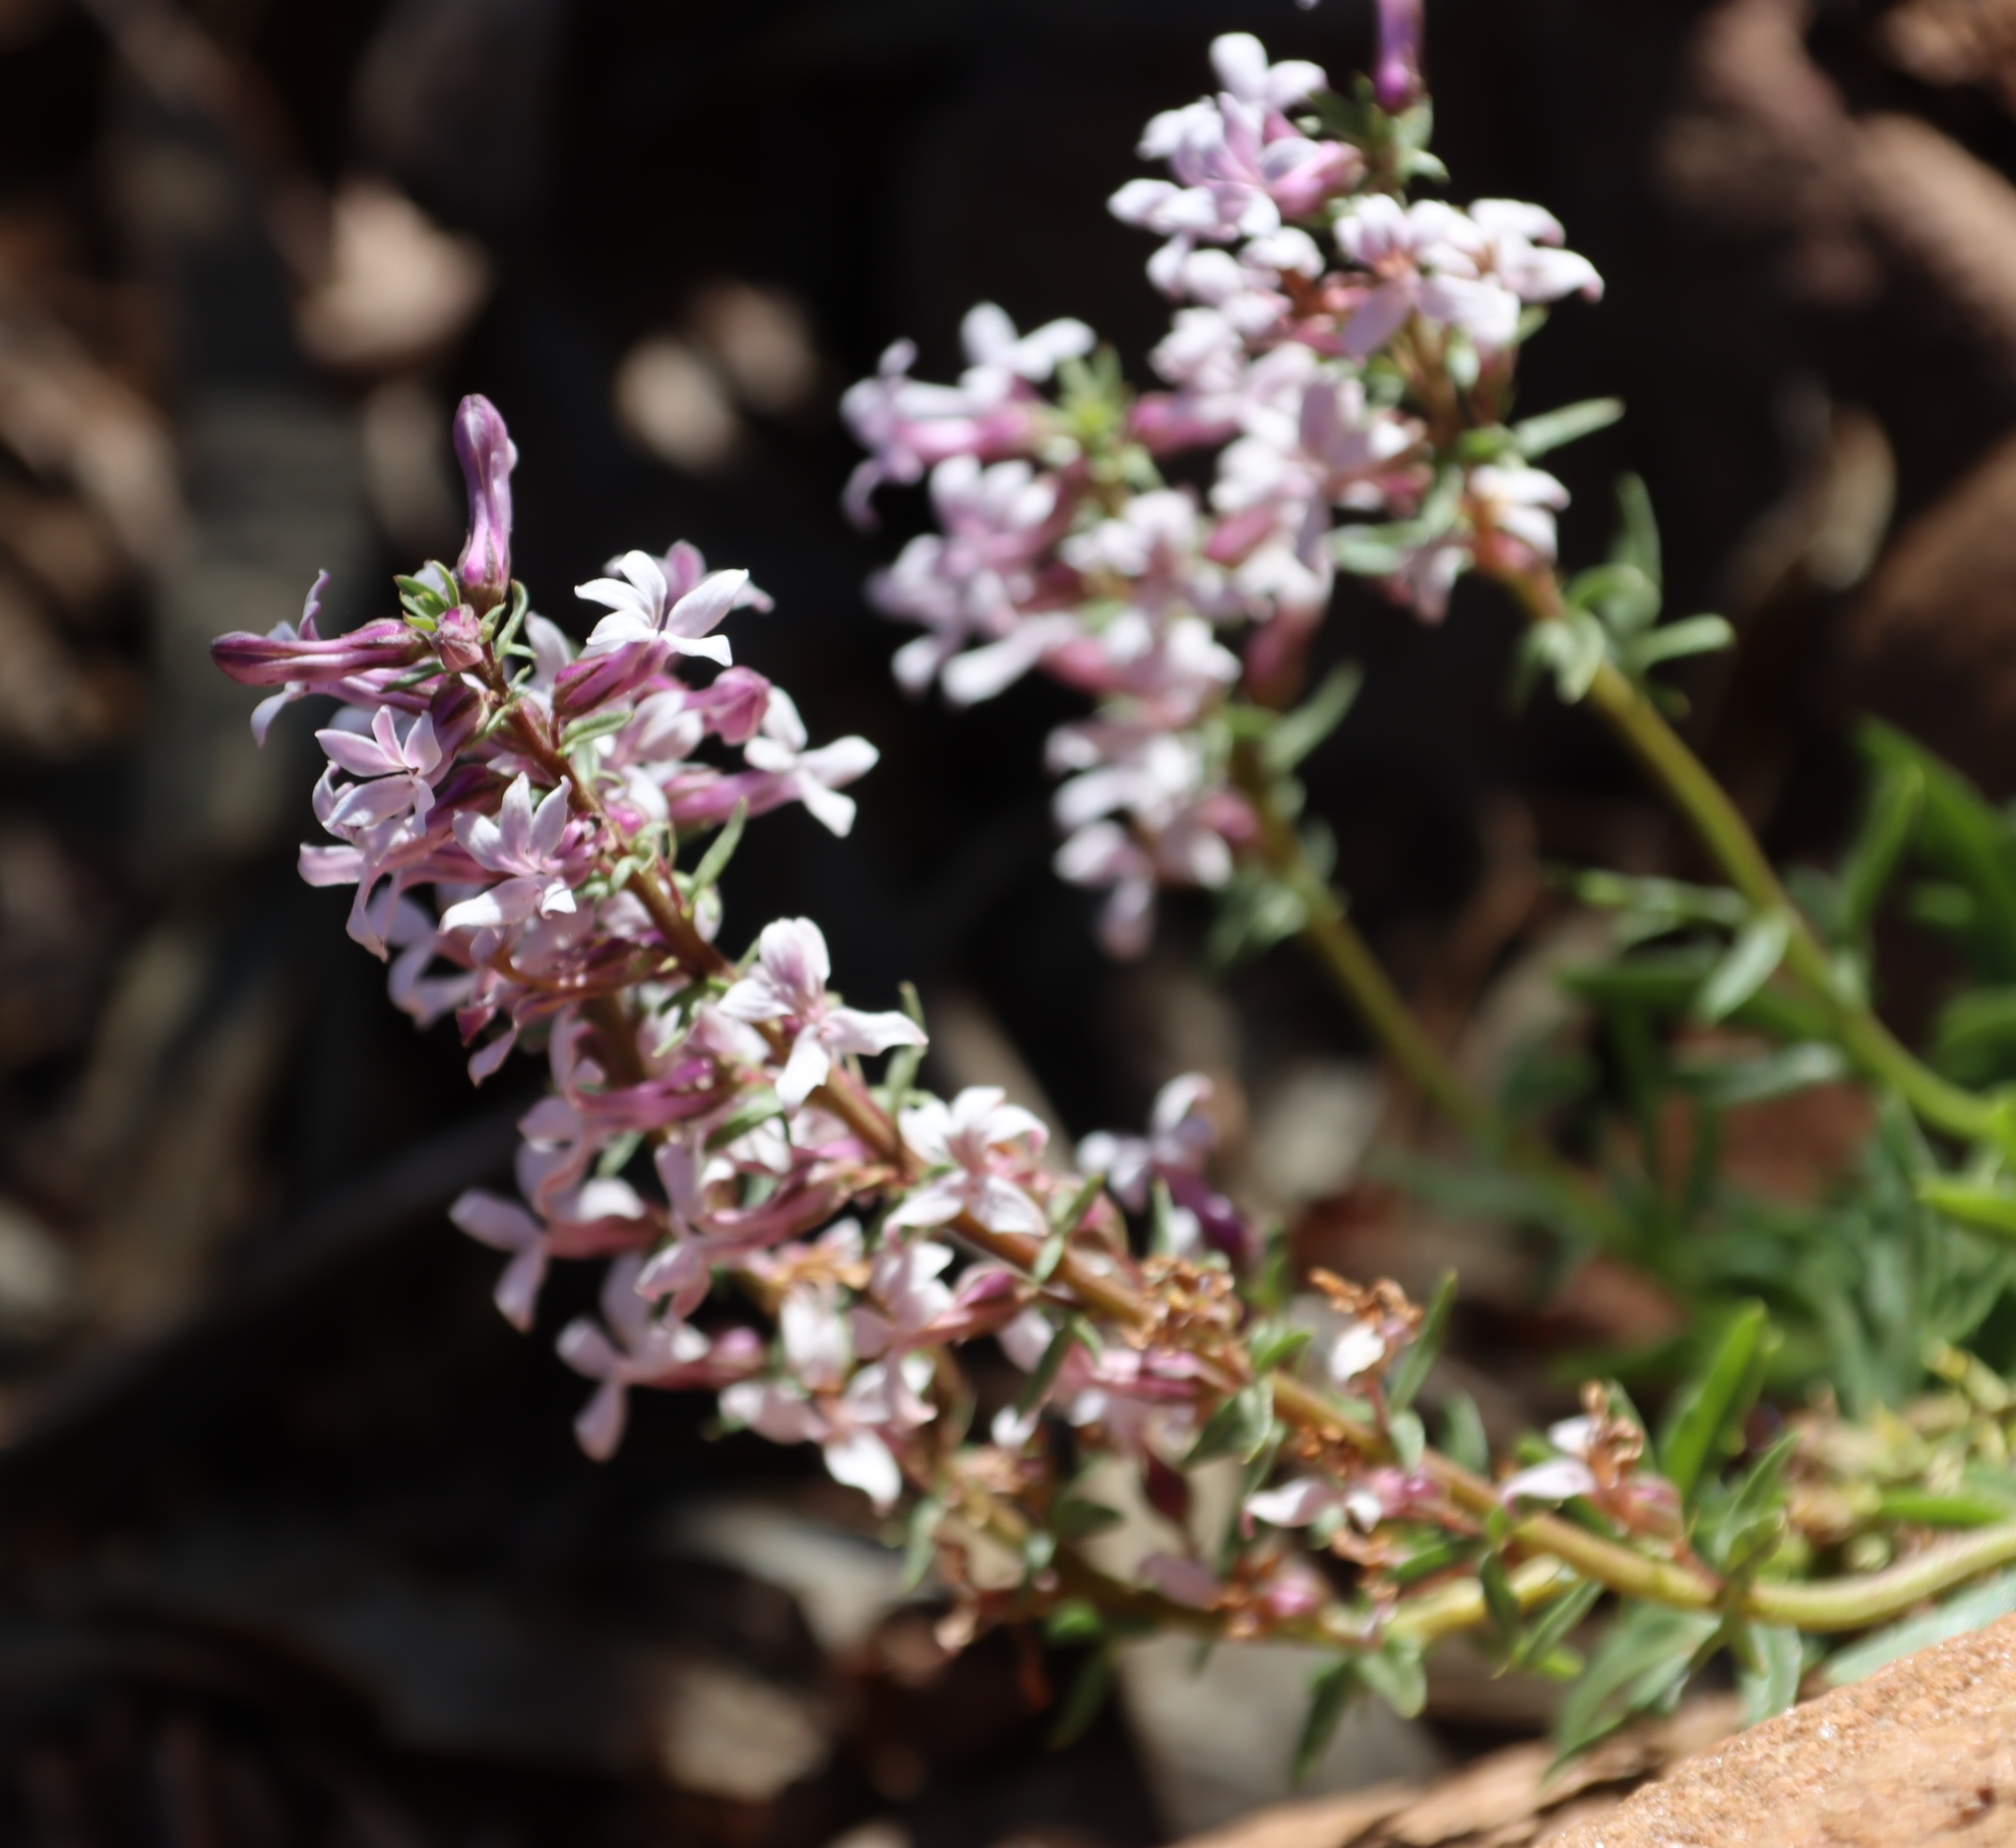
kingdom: Plantae
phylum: Tracheophyta
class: Magnoliopsida
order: Asterales
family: Campanulaceae
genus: Cyphia
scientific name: Cyphia bulbosa
